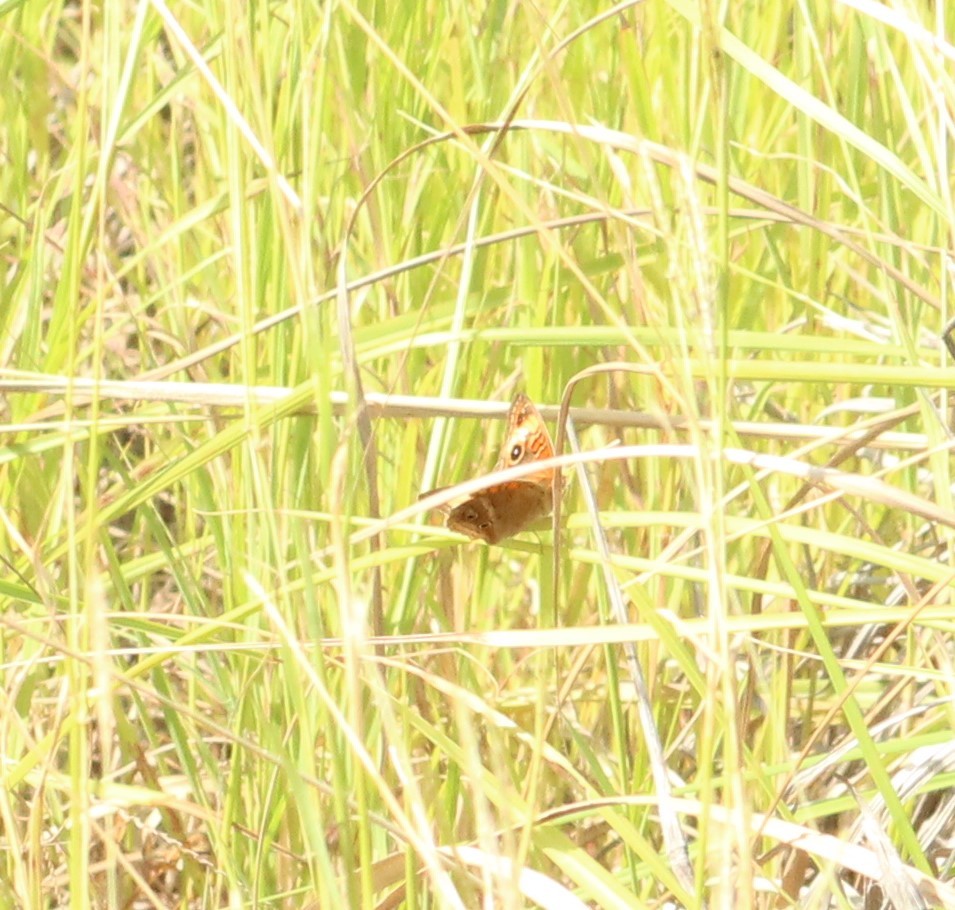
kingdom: Animalia
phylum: Arthropoda
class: Insecta
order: Lepidoptera
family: Nymphalidae
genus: Junonia
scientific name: Junonia lavinia
